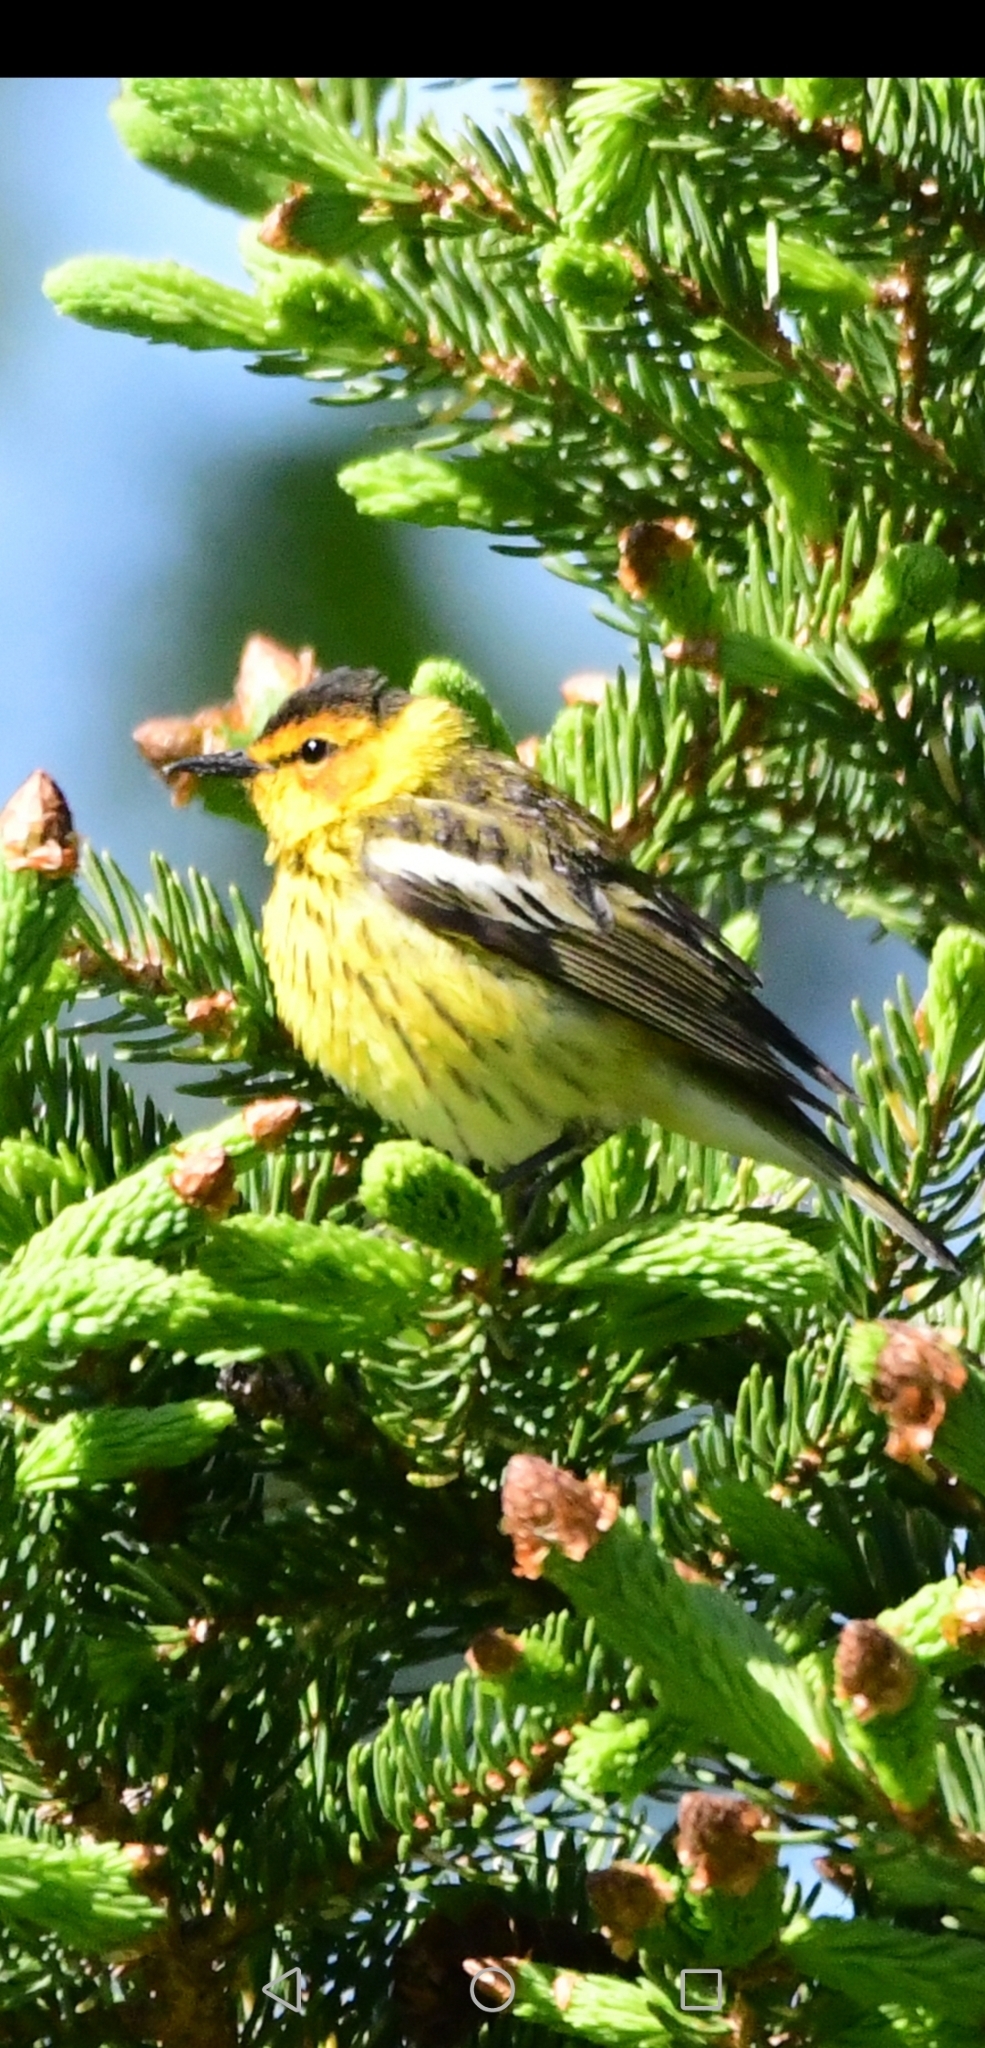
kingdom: Animalia
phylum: Chordata
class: Aves
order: Passeriformes
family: Parulidae
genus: Setophaga
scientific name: Setophaga tigrina
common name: Cape may warbler
